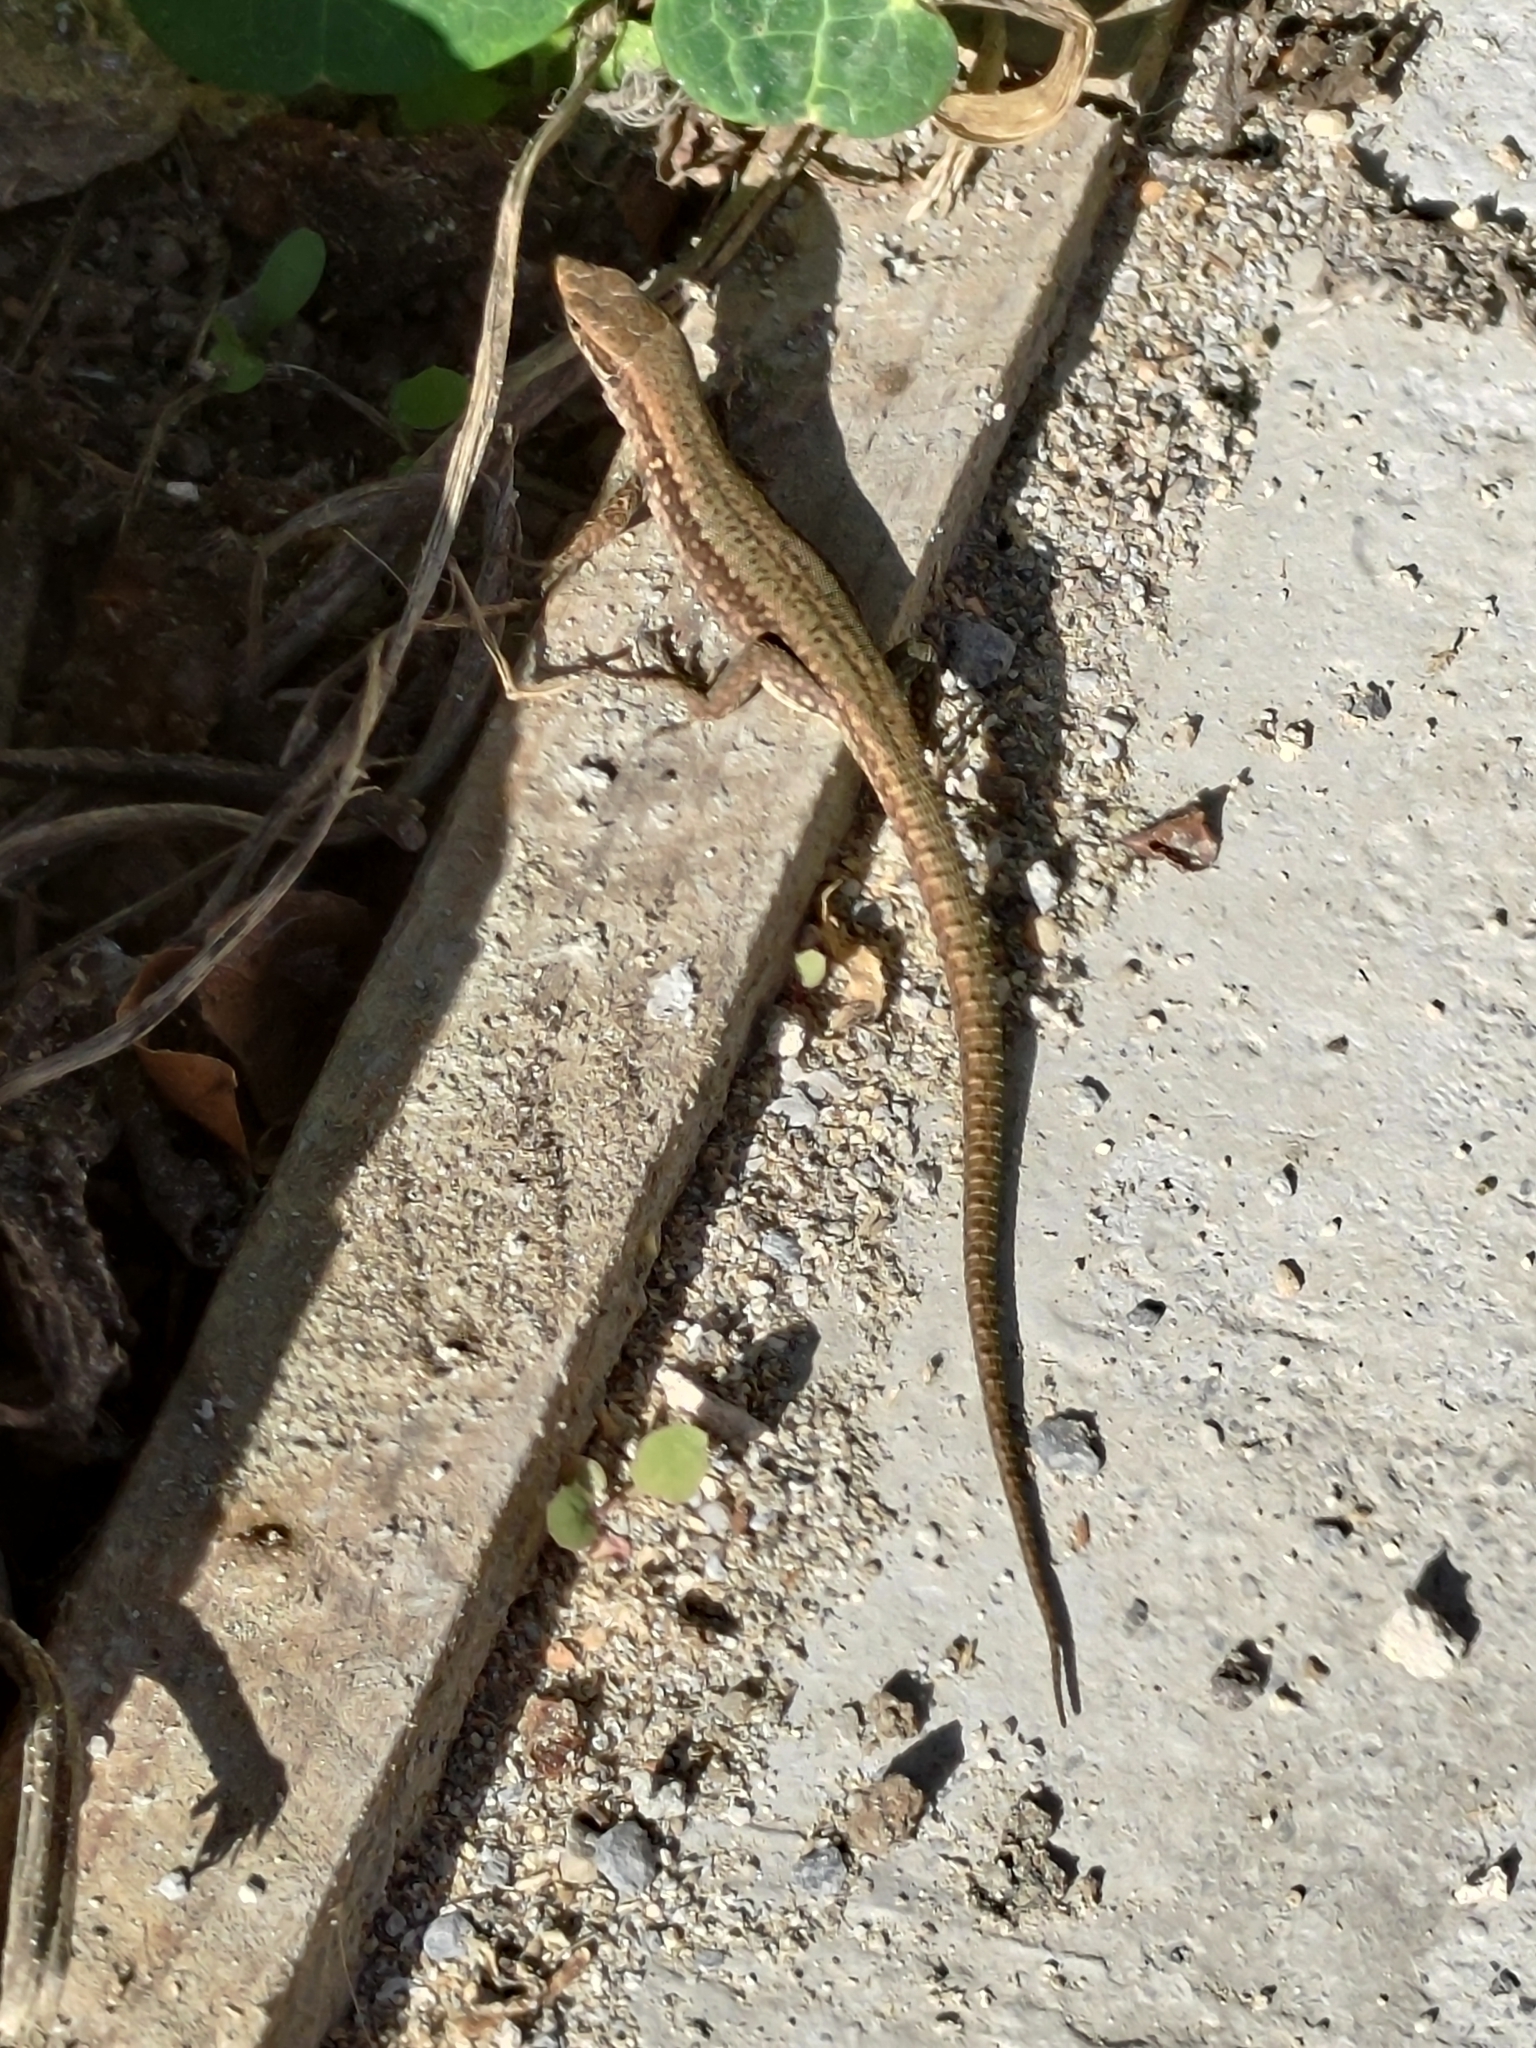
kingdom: Animalia
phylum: Chordata
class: Squamata
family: Lacertidae
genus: Podarcis
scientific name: Podarcis muralis
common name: Common wall lizard
